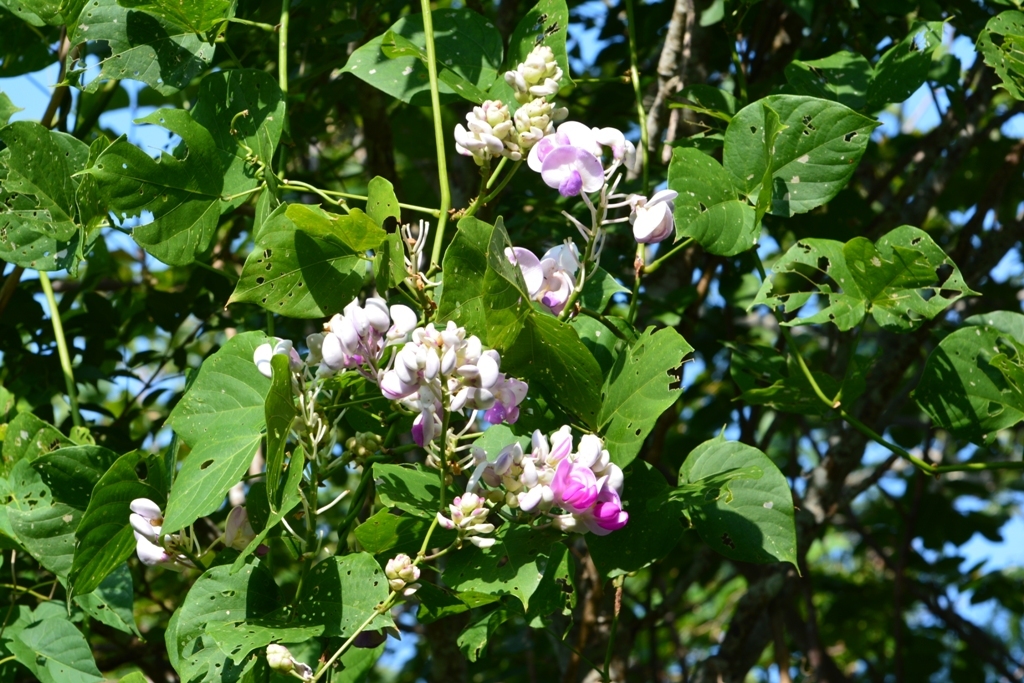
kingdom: Plantae
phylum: Tracheophyta
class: Magnoliopsida
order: Fabales
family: Fabaceae
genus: Ramirezella
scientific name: Ramirezella penduliflora
